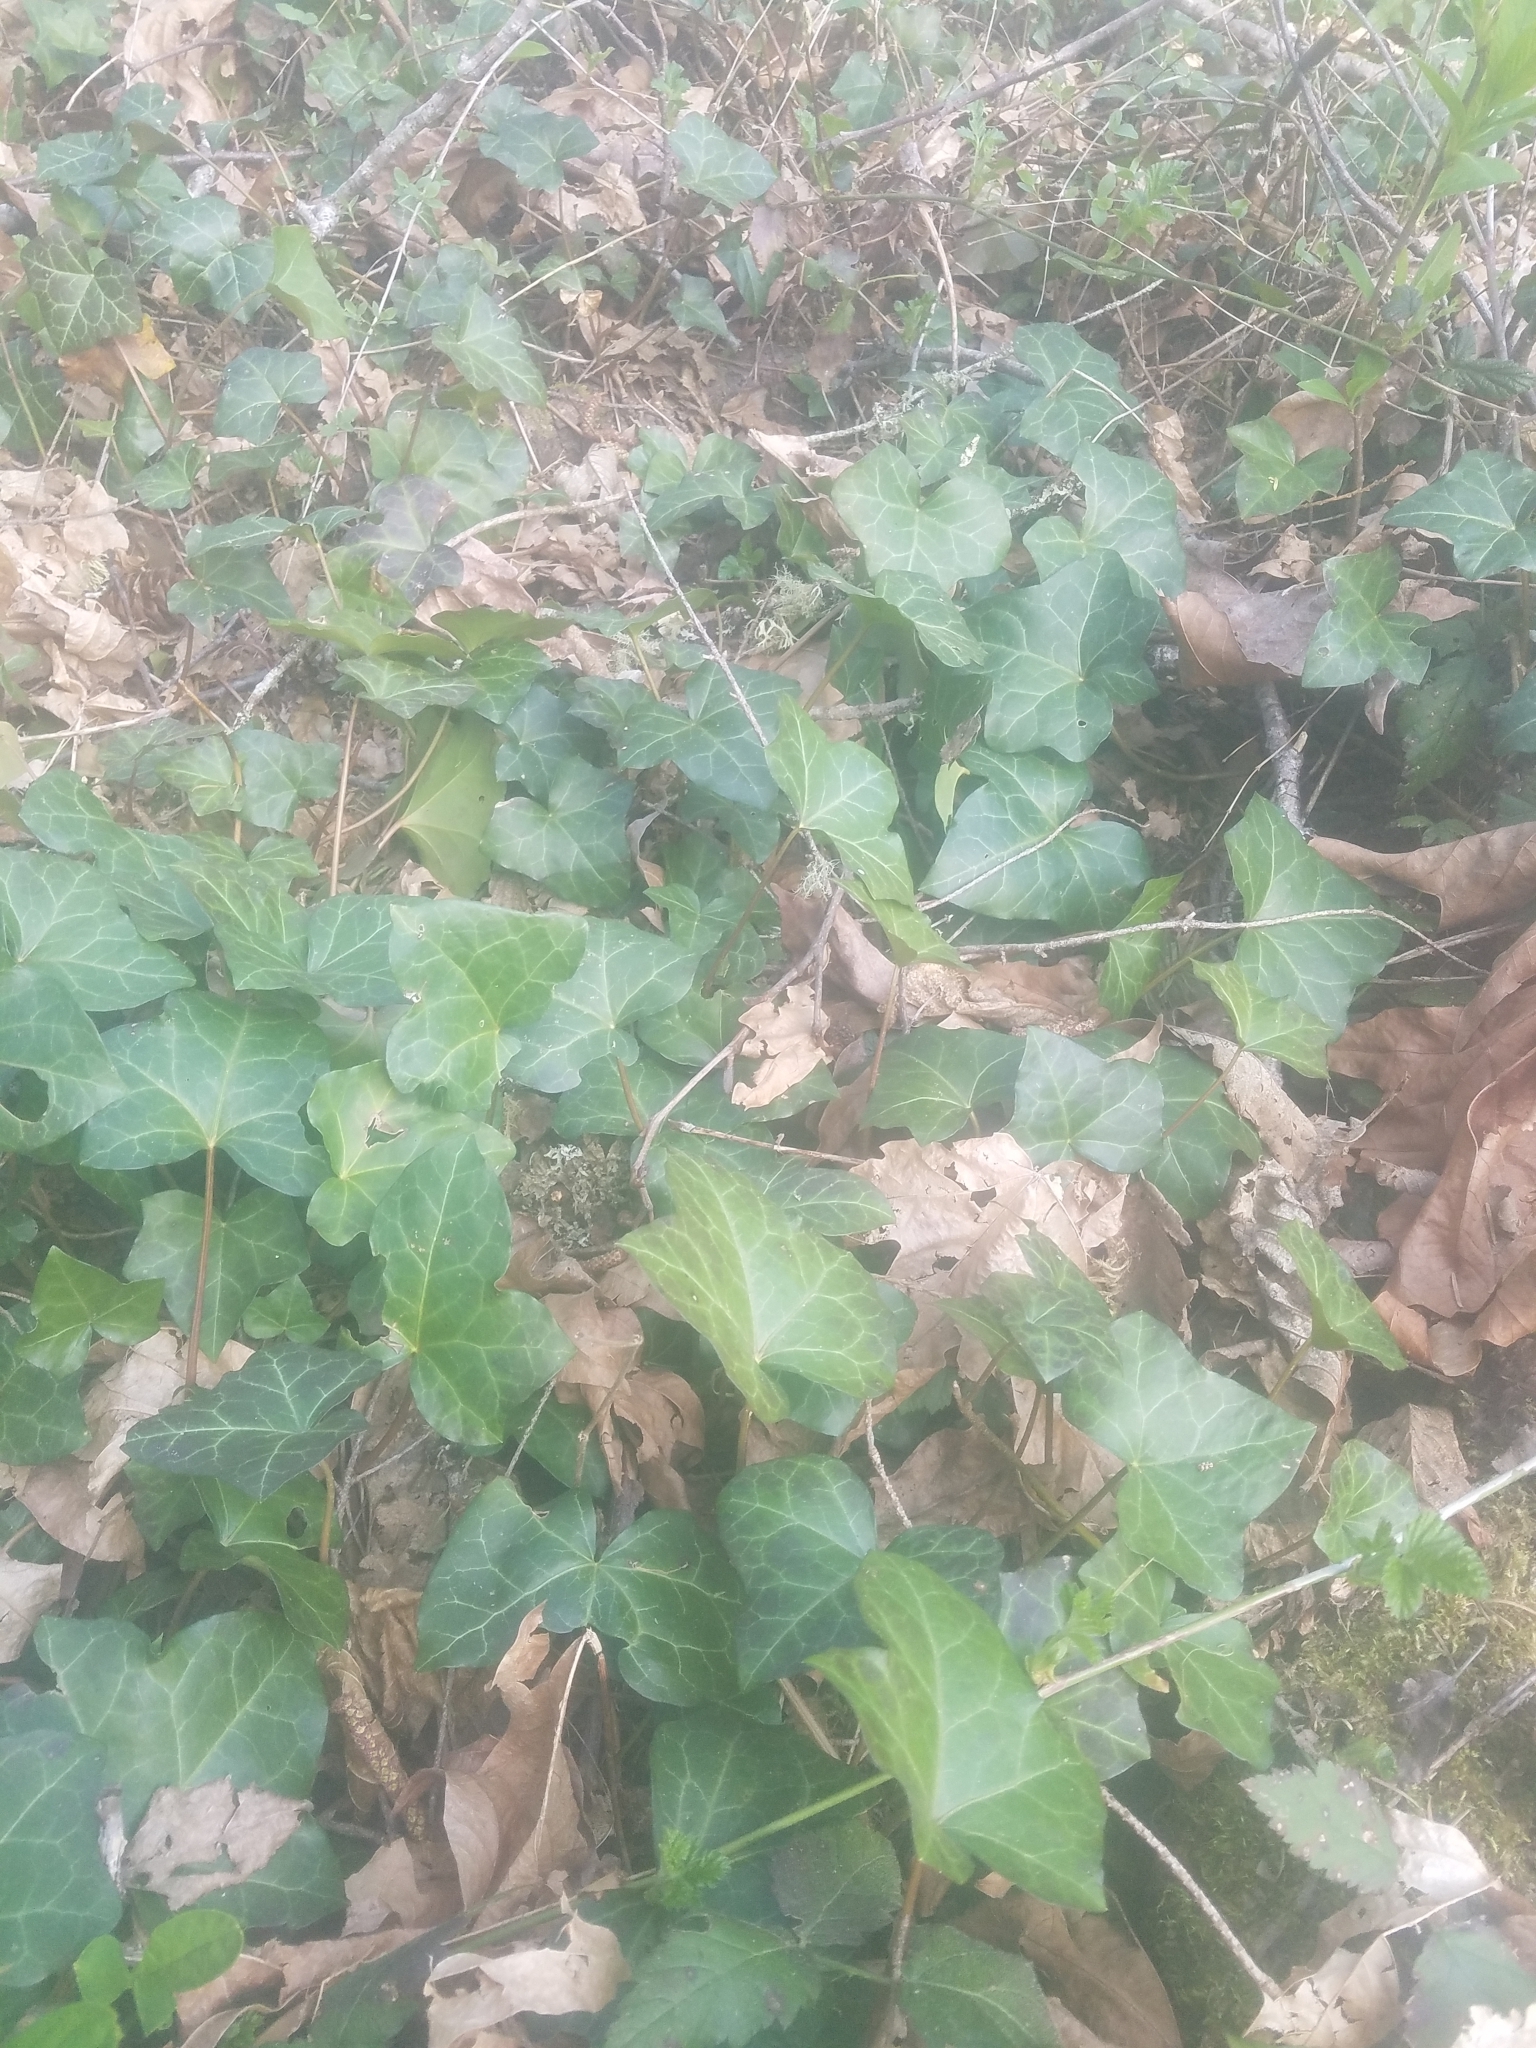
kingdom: Plantae
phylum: Tracheophyta
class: Magnoliopsida
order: Apiales
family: Araliaceae
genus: Hedera
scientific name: Hedera helix
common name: Ivy
